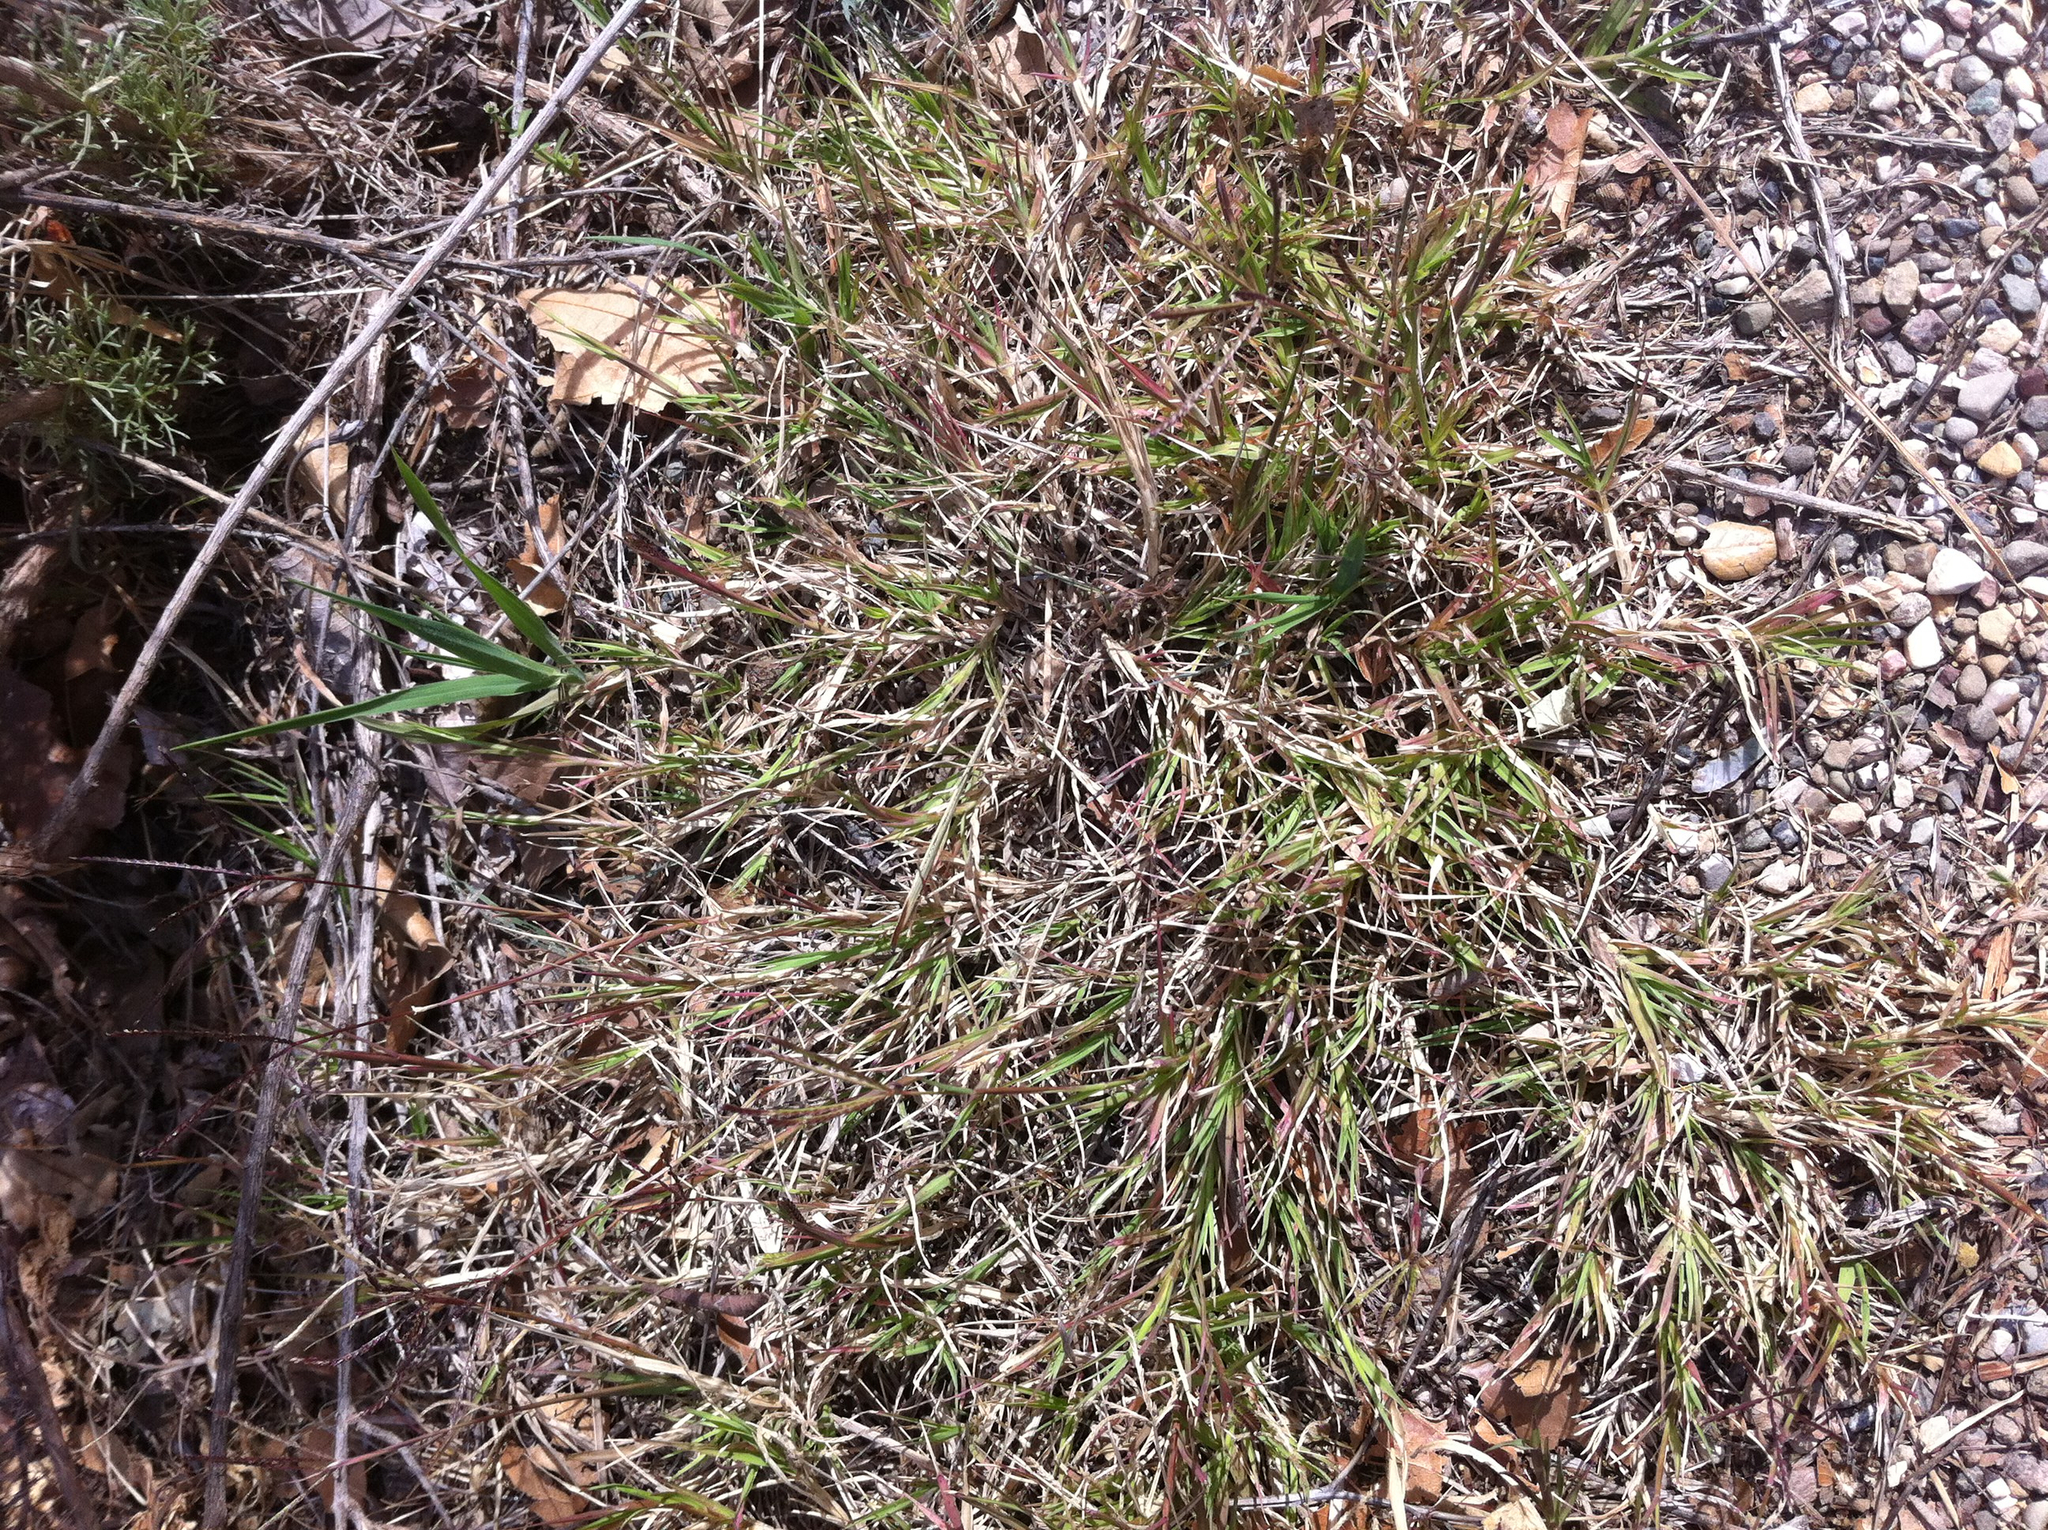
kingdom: Plantae
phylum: Tracheophyta
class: Liliopsida
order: Poales
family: Poaceae
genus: Cynodon
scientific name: Cynodon dactylon
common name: Bermuda grass
